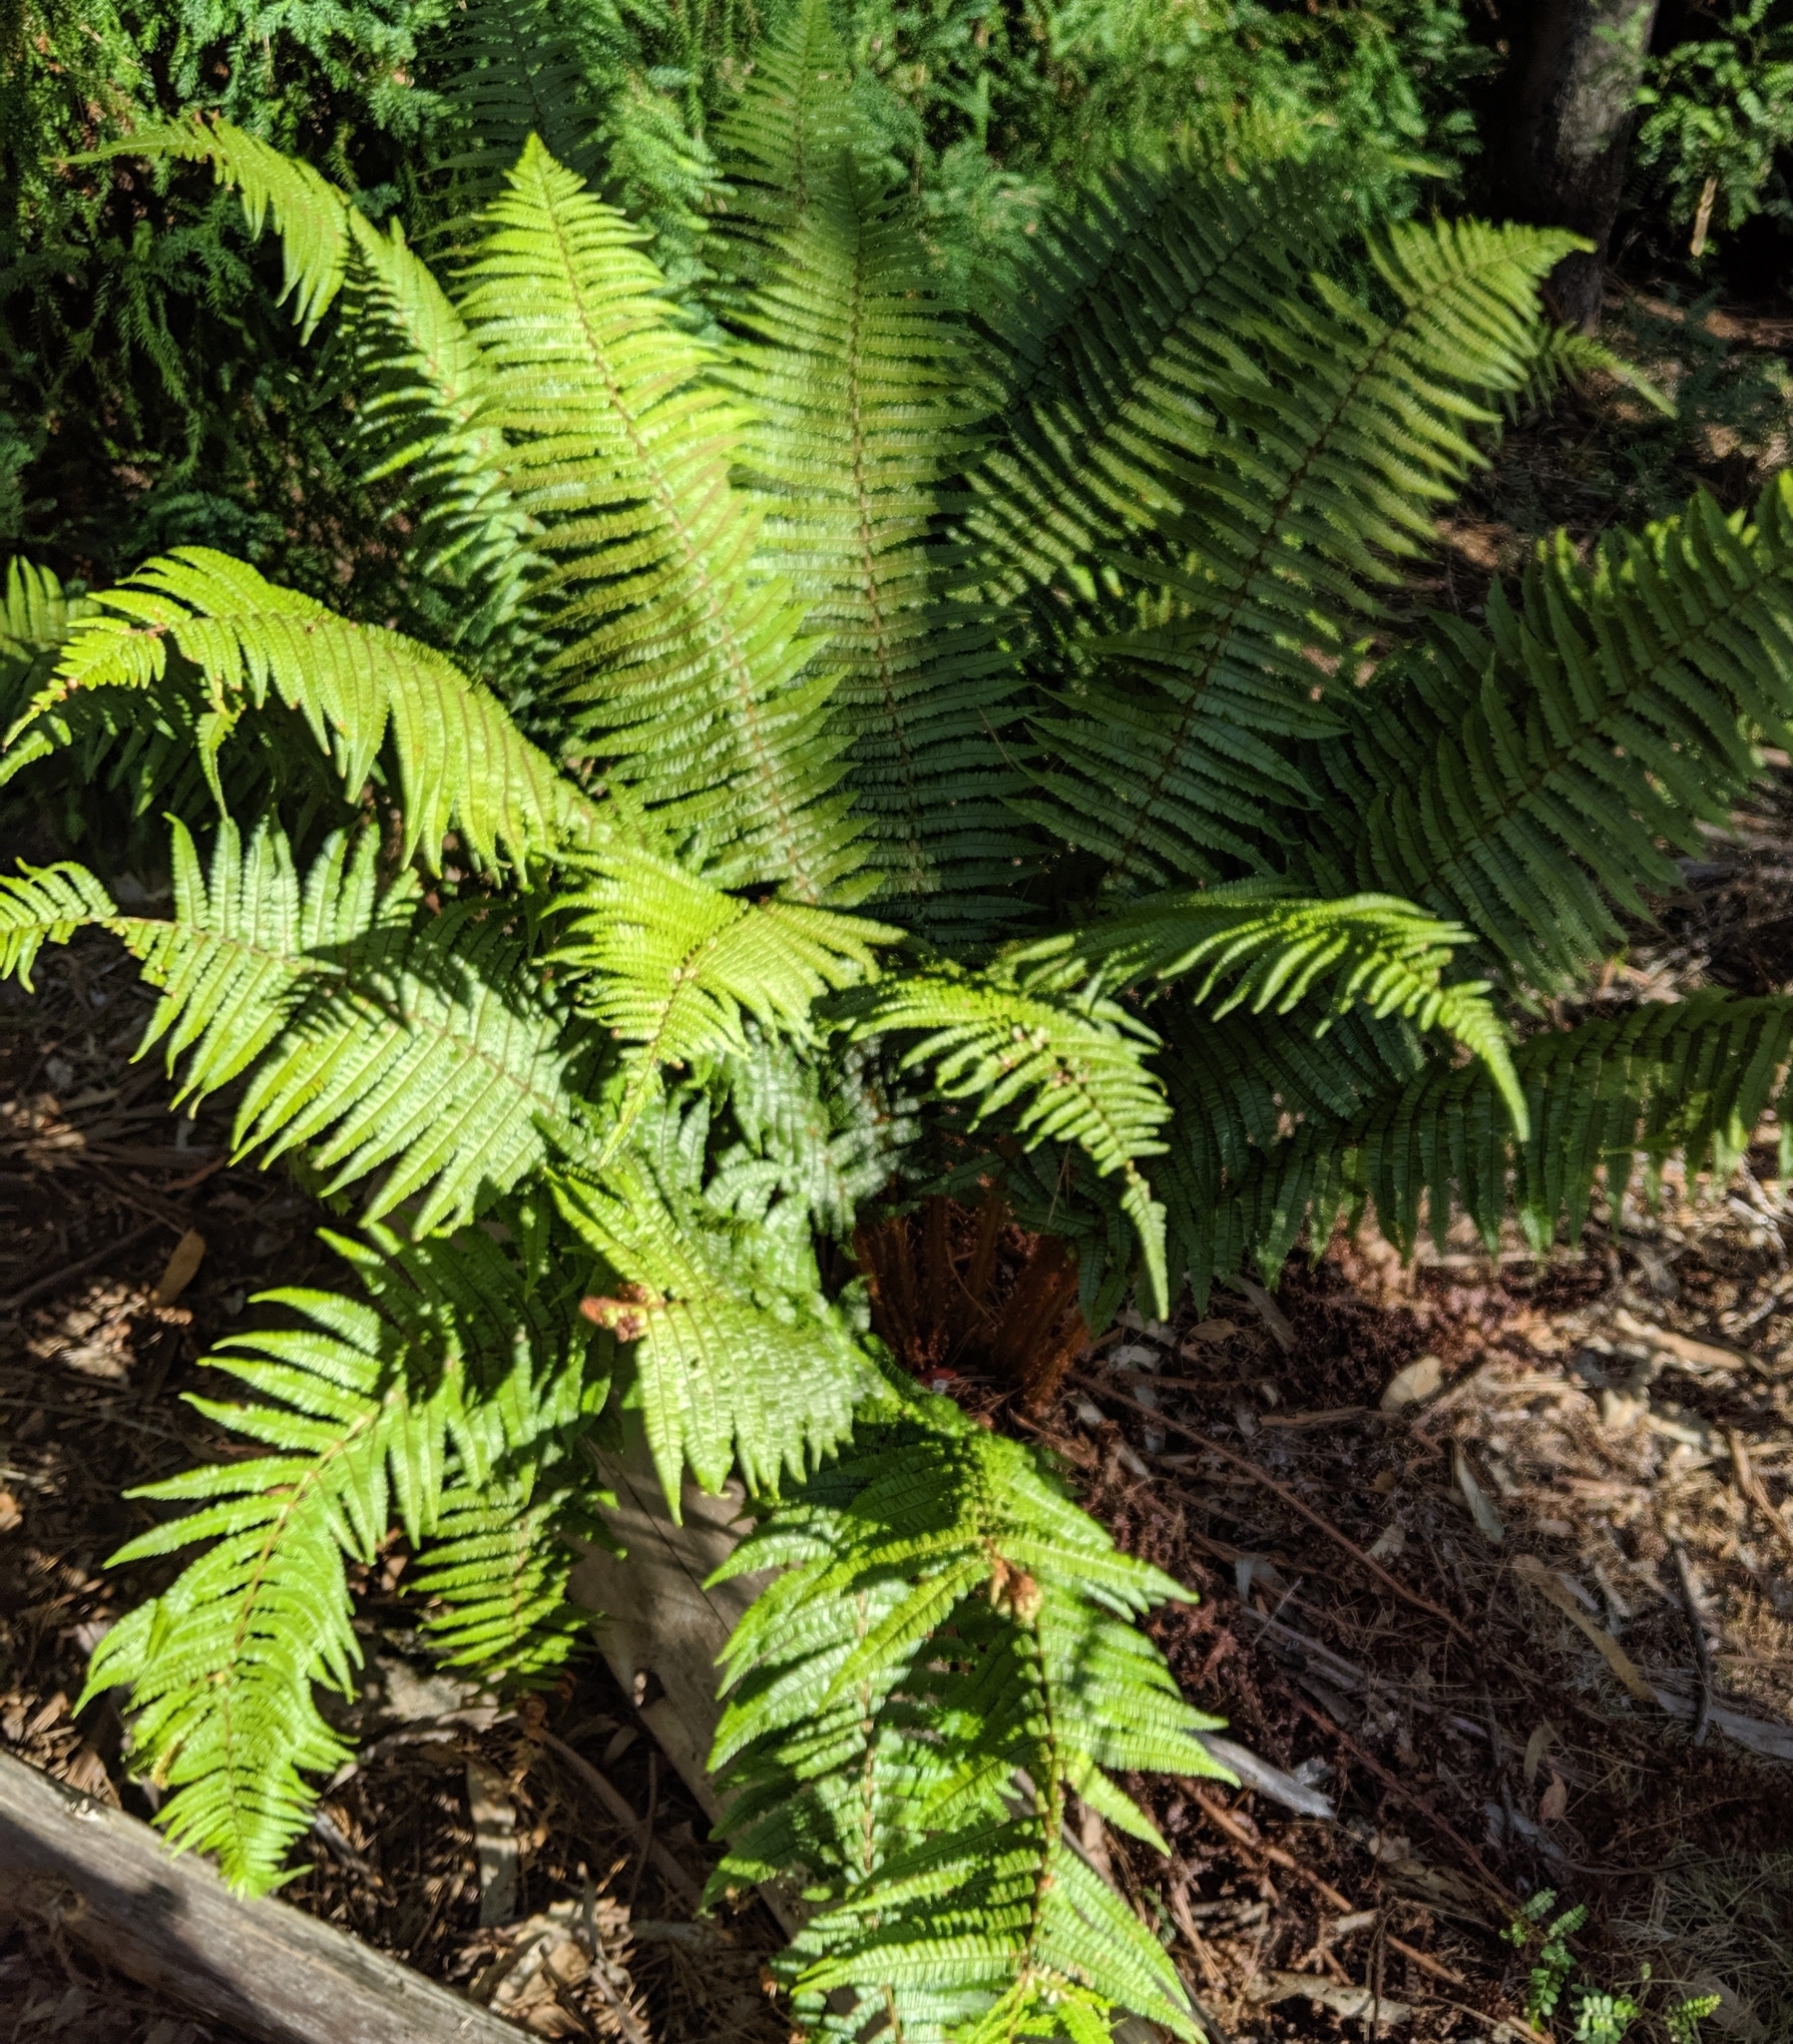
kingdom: Plantae
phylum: Tracheophyta
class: Polypodiopsida
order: Polypodiales
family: Dryopteridaceae
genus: Dryopteris
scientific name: Dryopteris wallichiana
